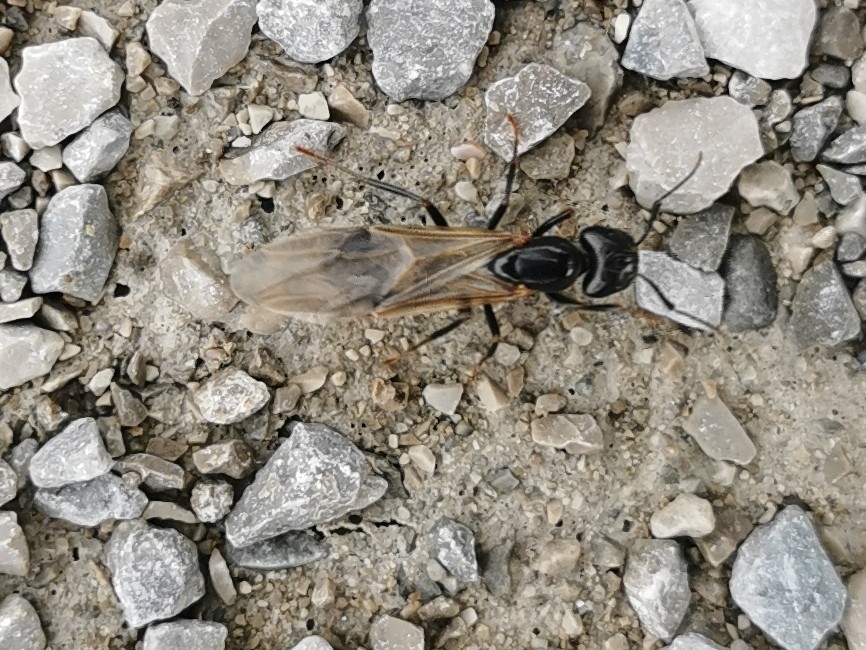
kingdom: Animalia
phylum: Arthropoda
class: Insecta
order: Hymenoptera
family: Formicidae
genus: Camponotus
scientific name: Camponotus pennsylvanicus
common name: Black carpenter ant
